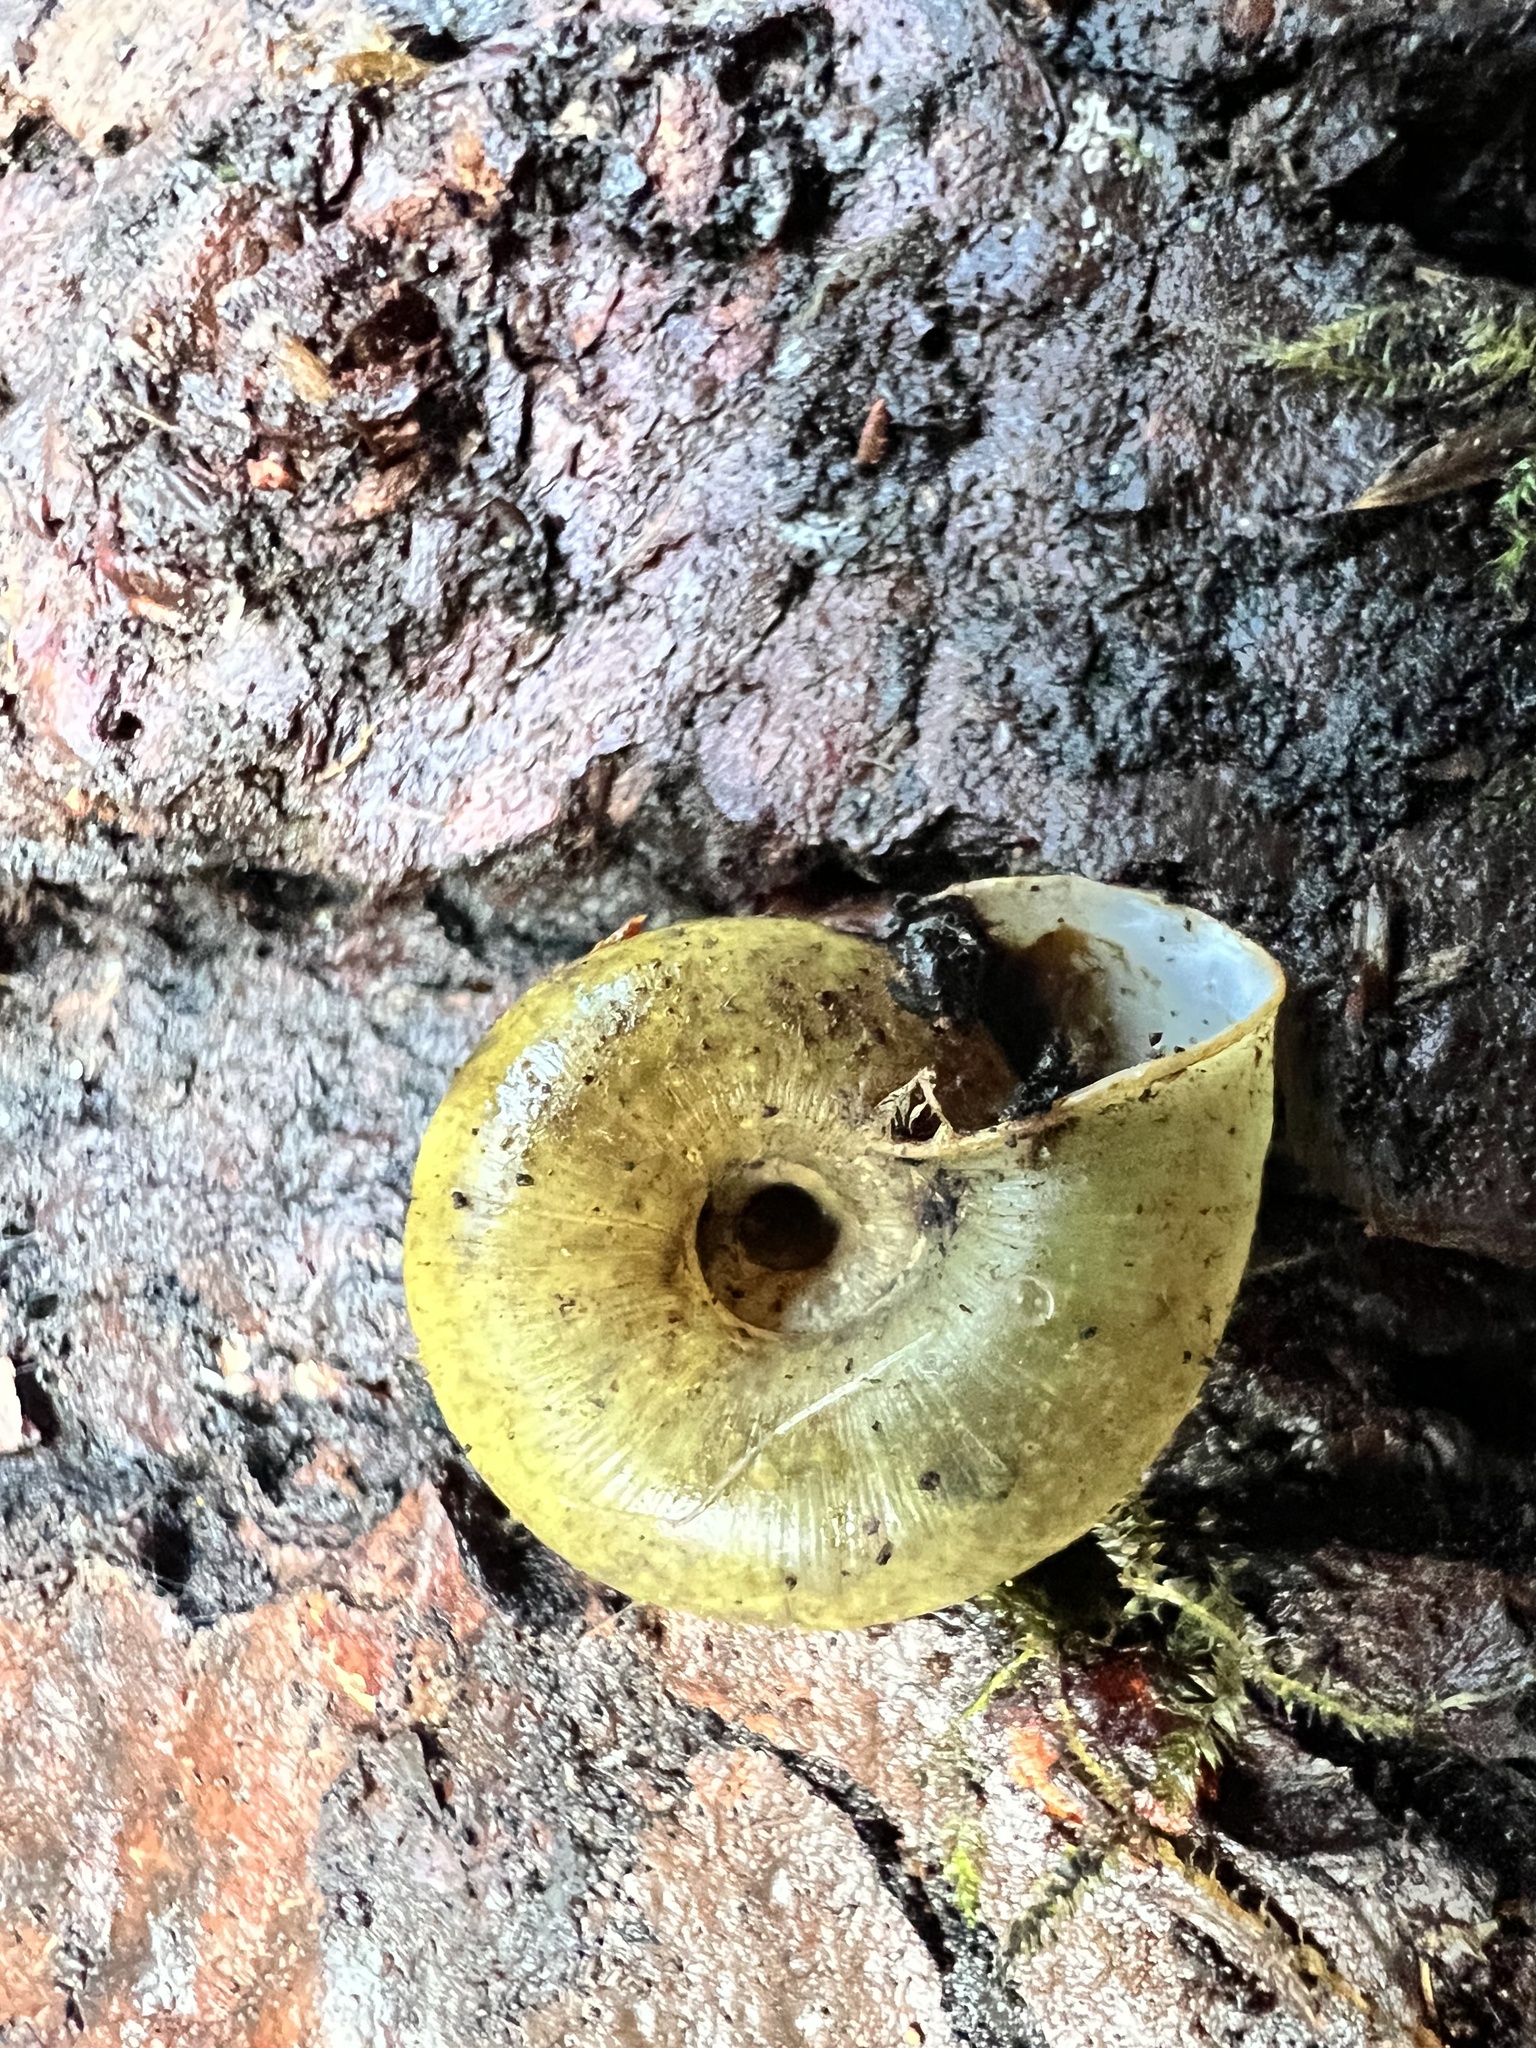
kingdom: Animalia
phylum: Mollusca
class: Gastropoda
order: Stylommatophora
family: Haplotrematidae
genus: Haplotrema
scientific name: Haplotrema vancouverense
